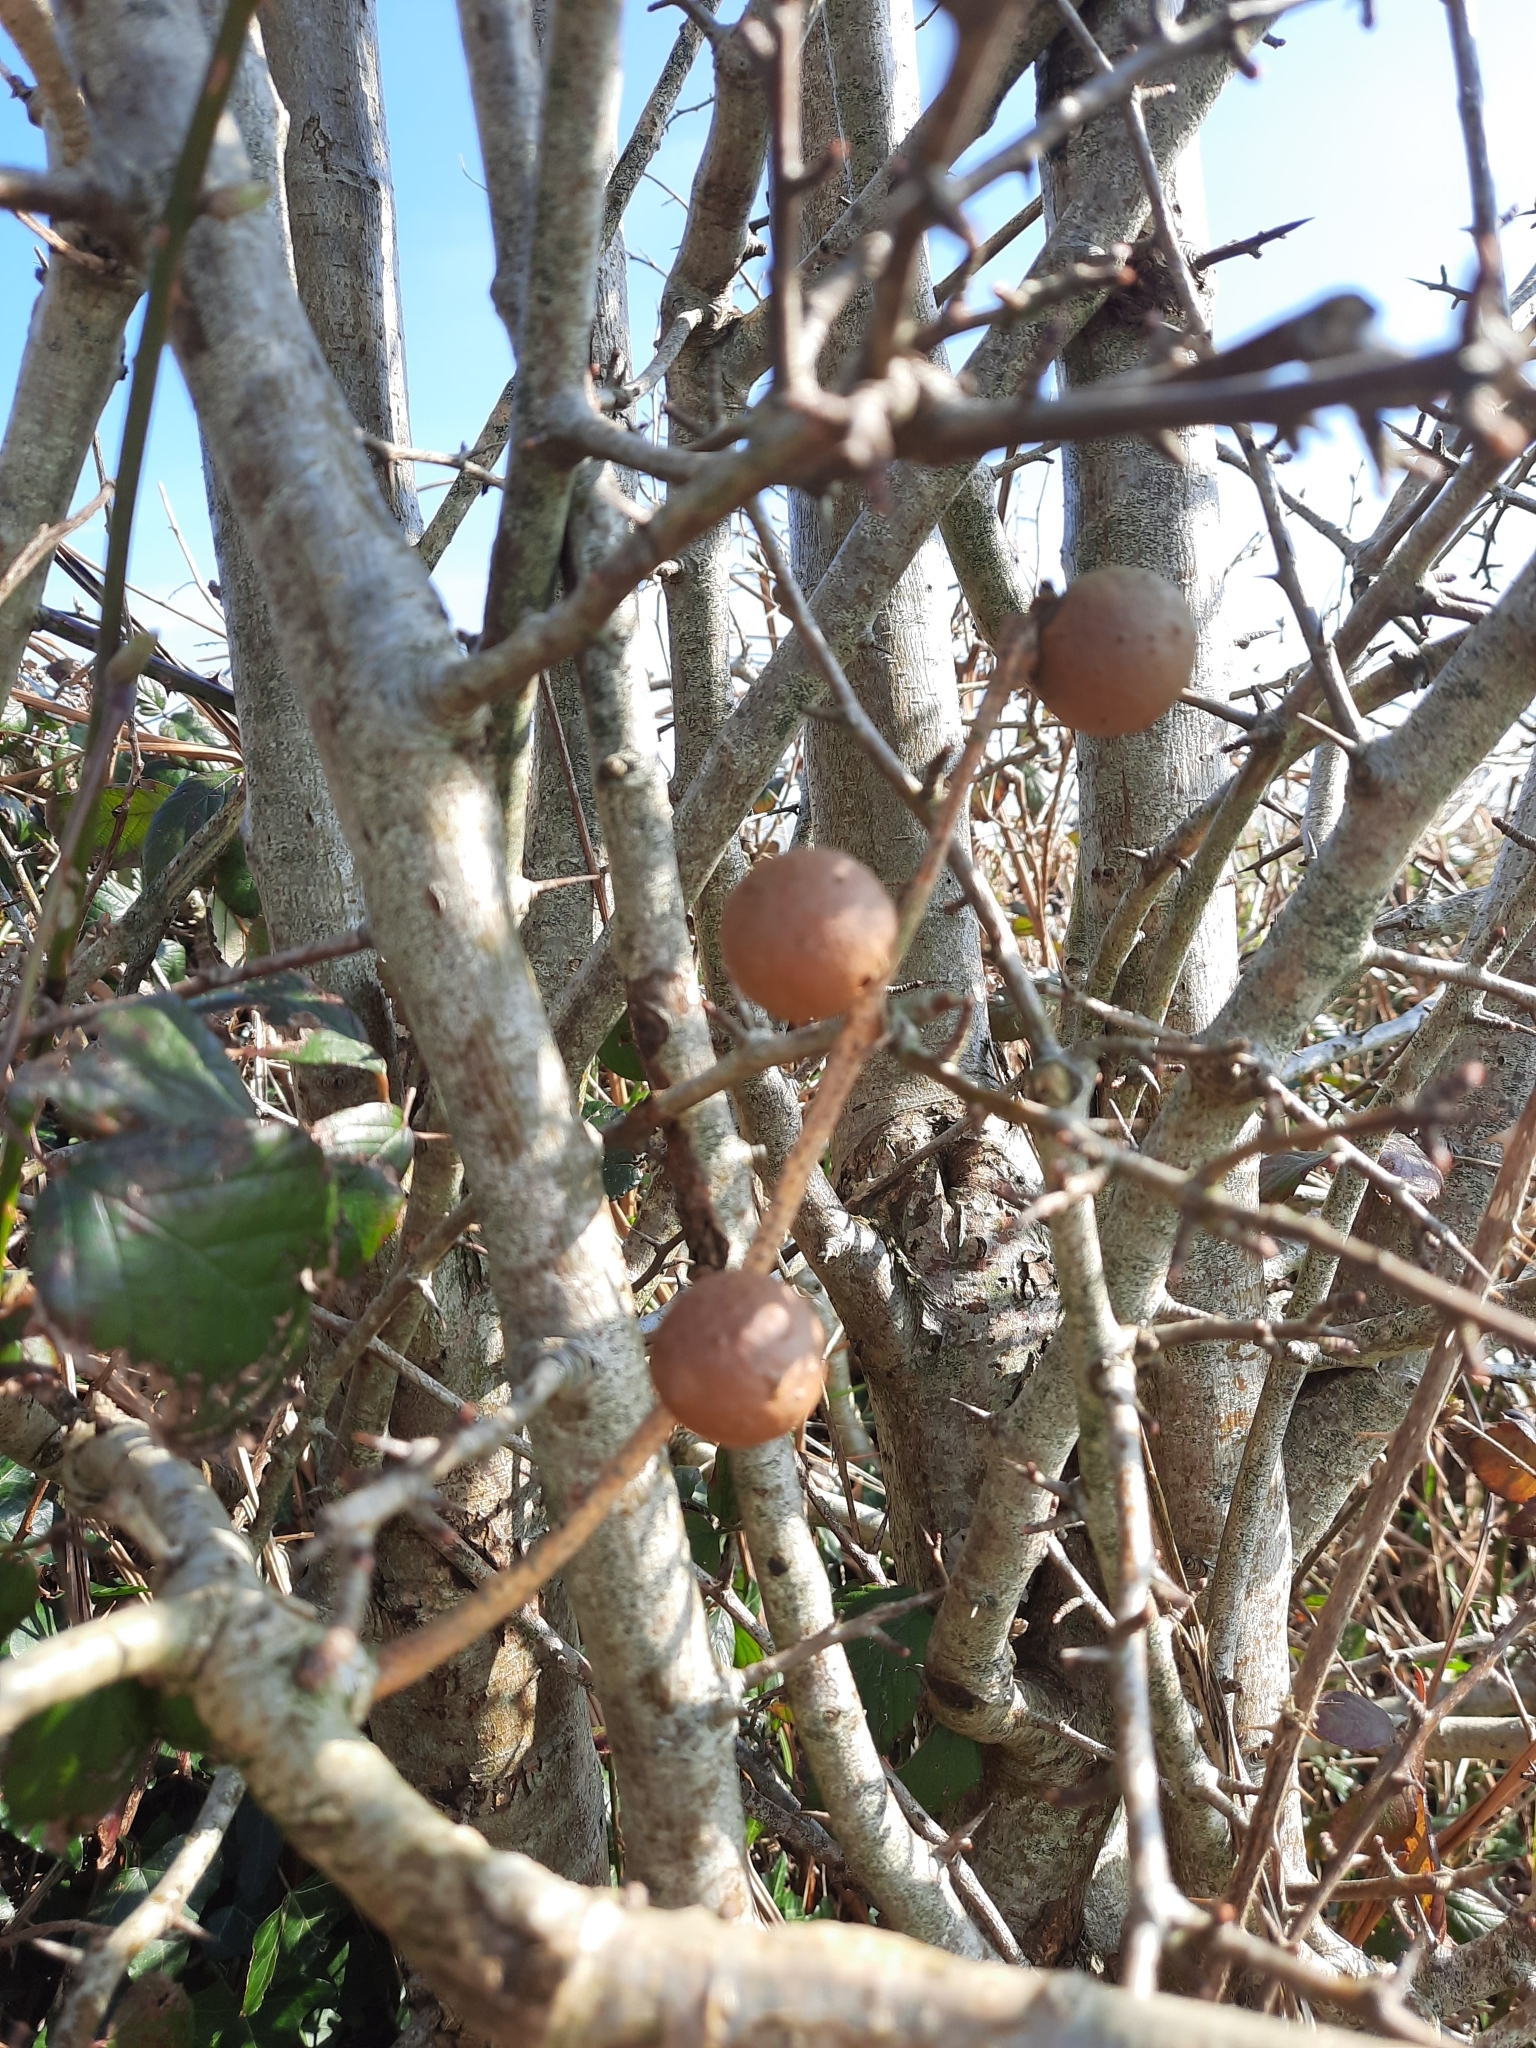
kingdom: Animalia
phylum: Arthropoda
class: Insecta
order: Hymenoptera
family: Cynipidae
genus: Andricus
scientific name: Andricus kollari
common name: Marble gall
